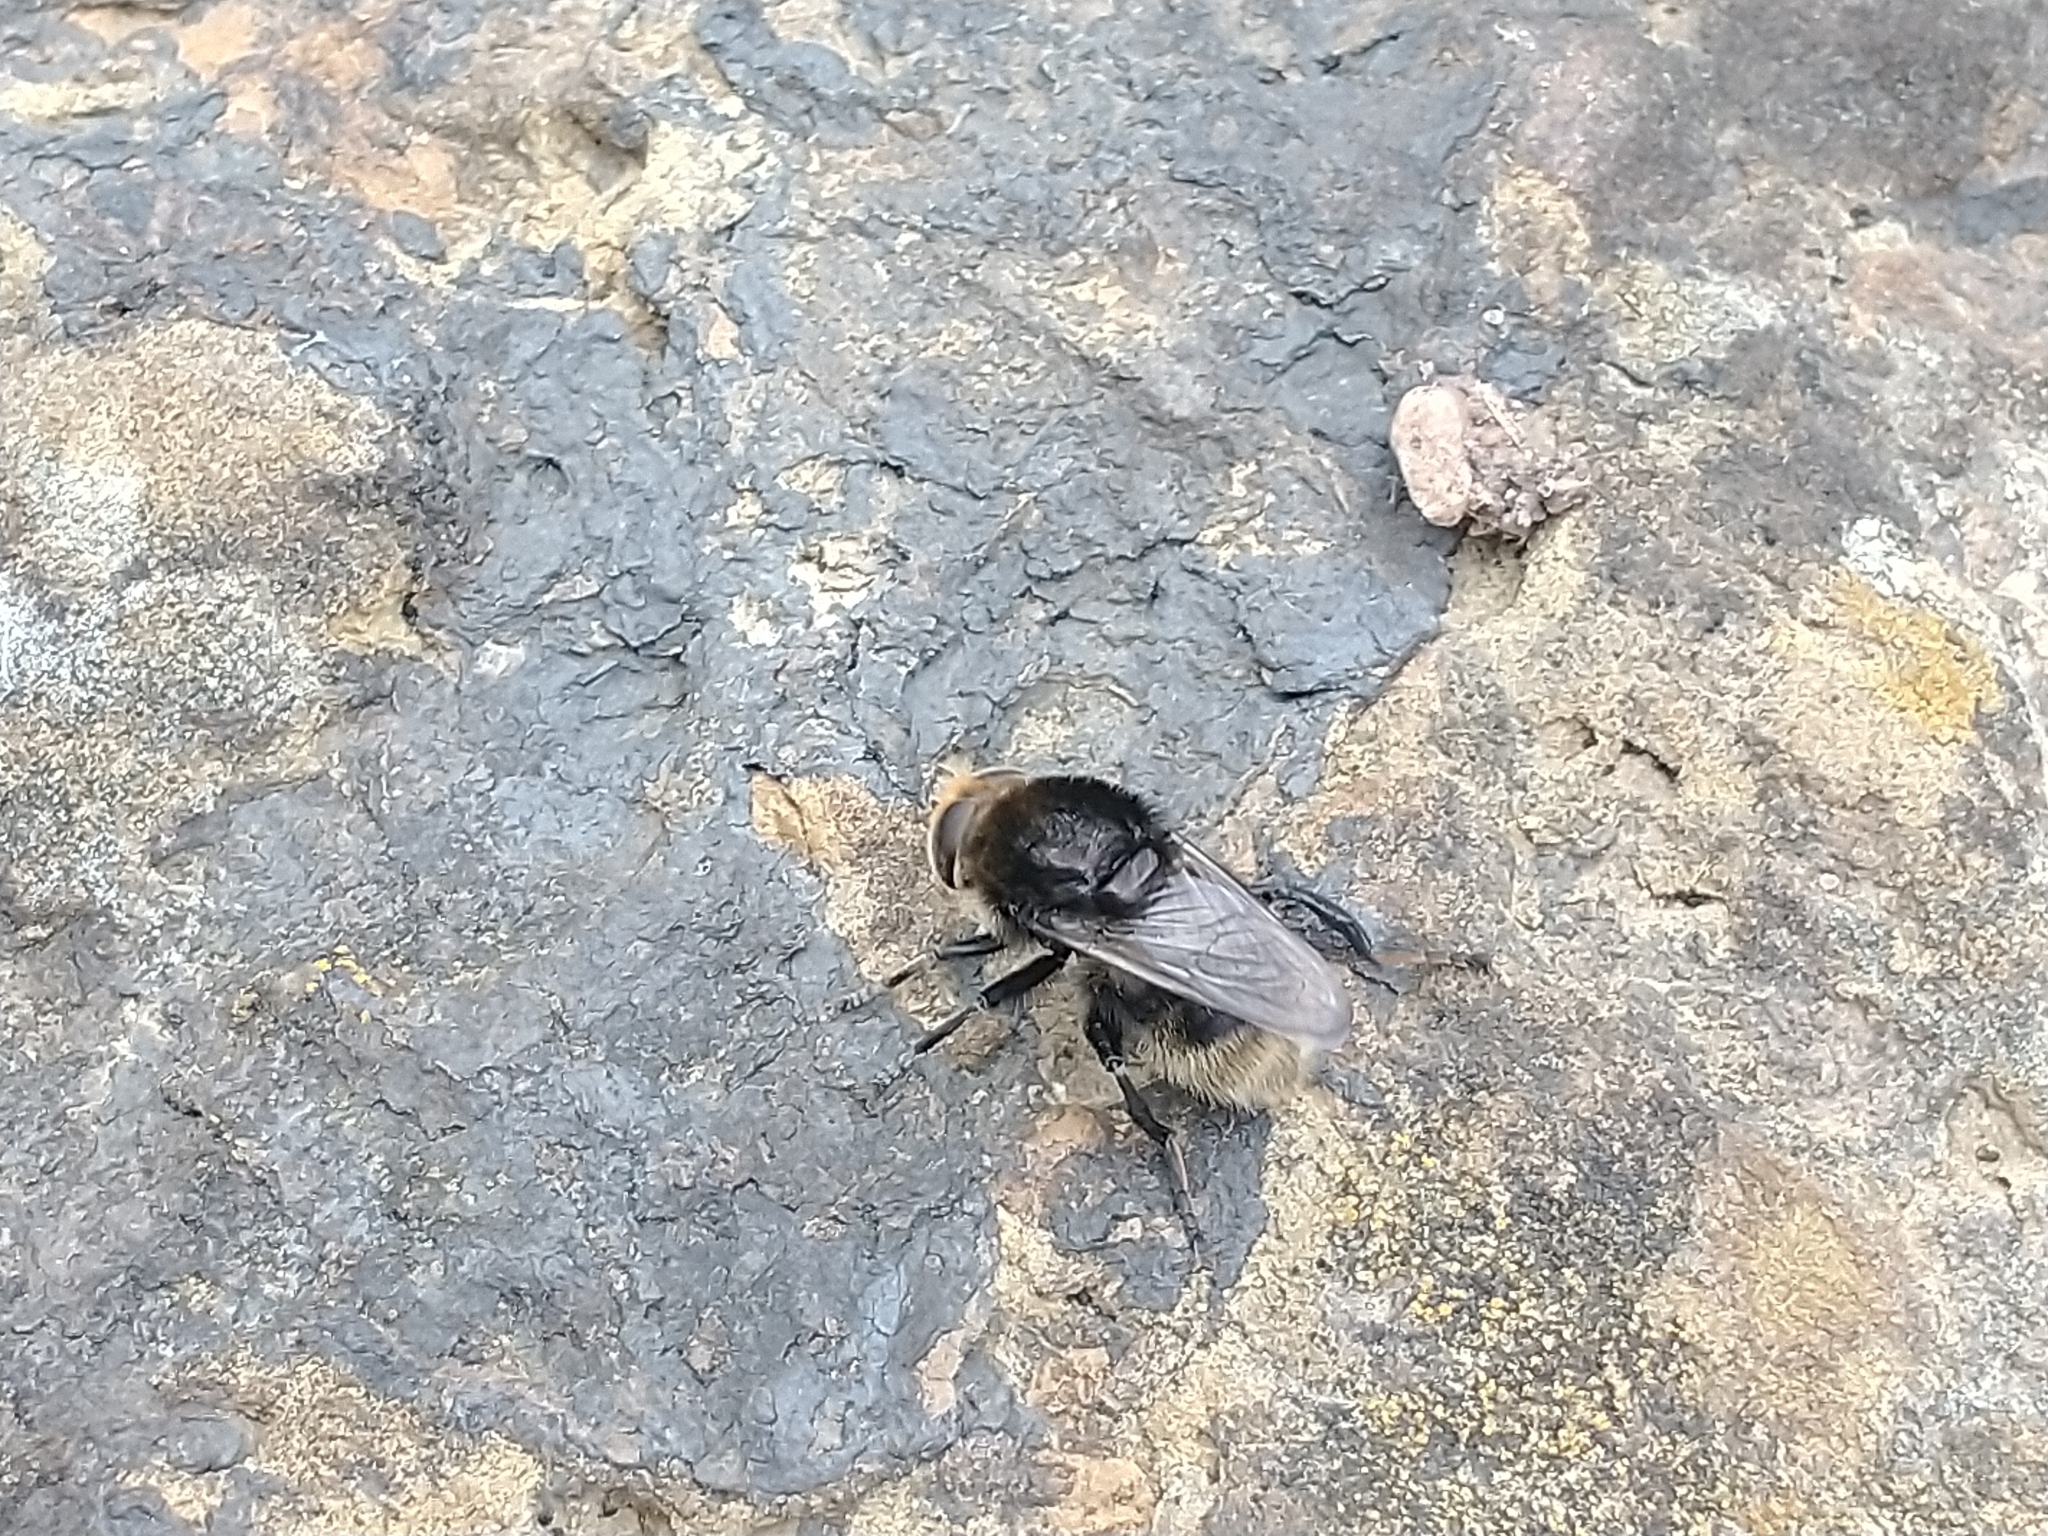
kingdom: Animalia
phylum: Arthropoda
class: Insecta
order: Diptera
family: Syrphidae
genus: Merodon
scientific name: Merodon equestris
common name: Greater bulb-fly
